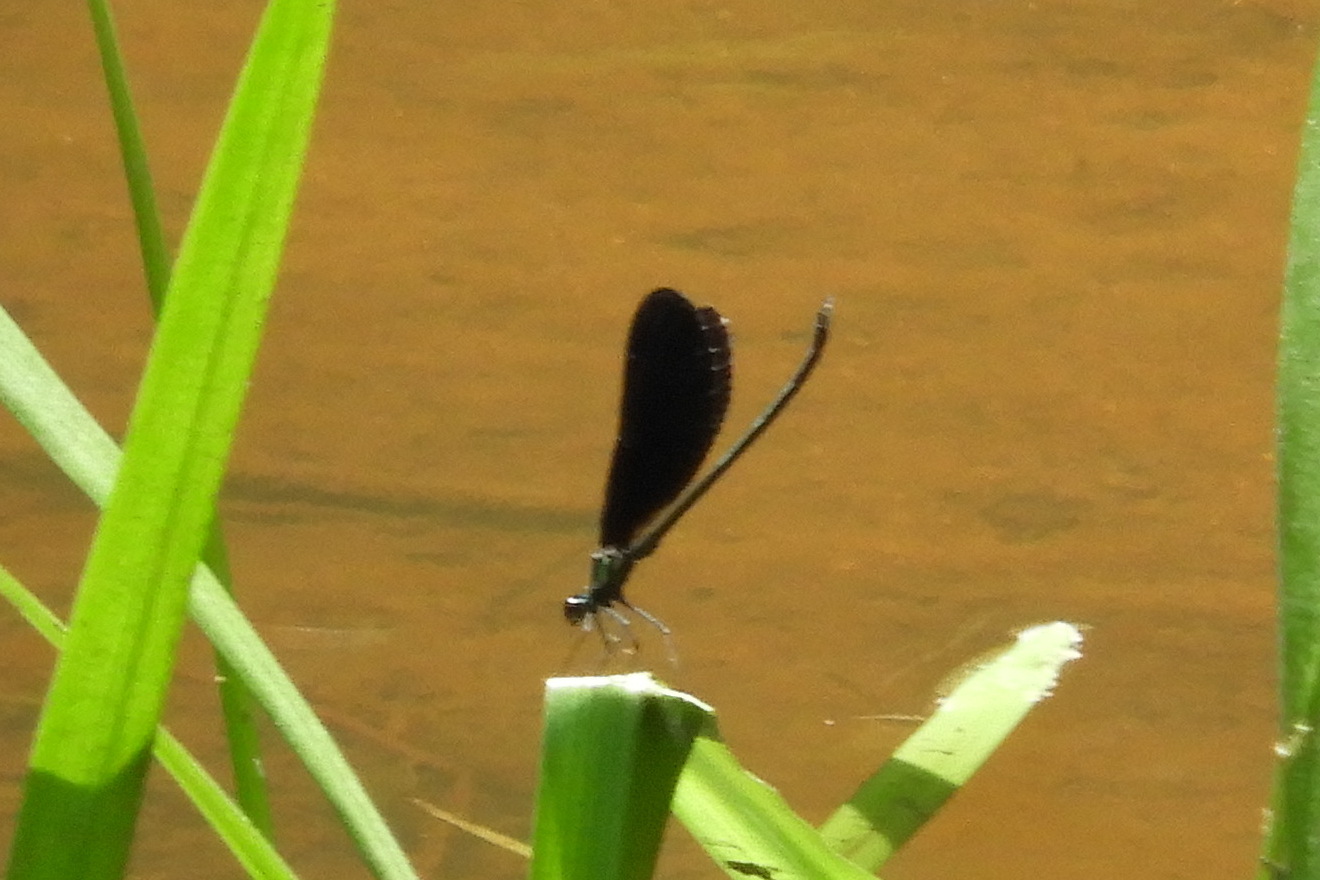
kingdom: Animalia
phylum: Arthropoda
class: Insecta
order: Odonata
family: Calopterygidae
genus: Calopteryx
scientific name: Calopteryx maculata
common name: Ebony jewelwing
